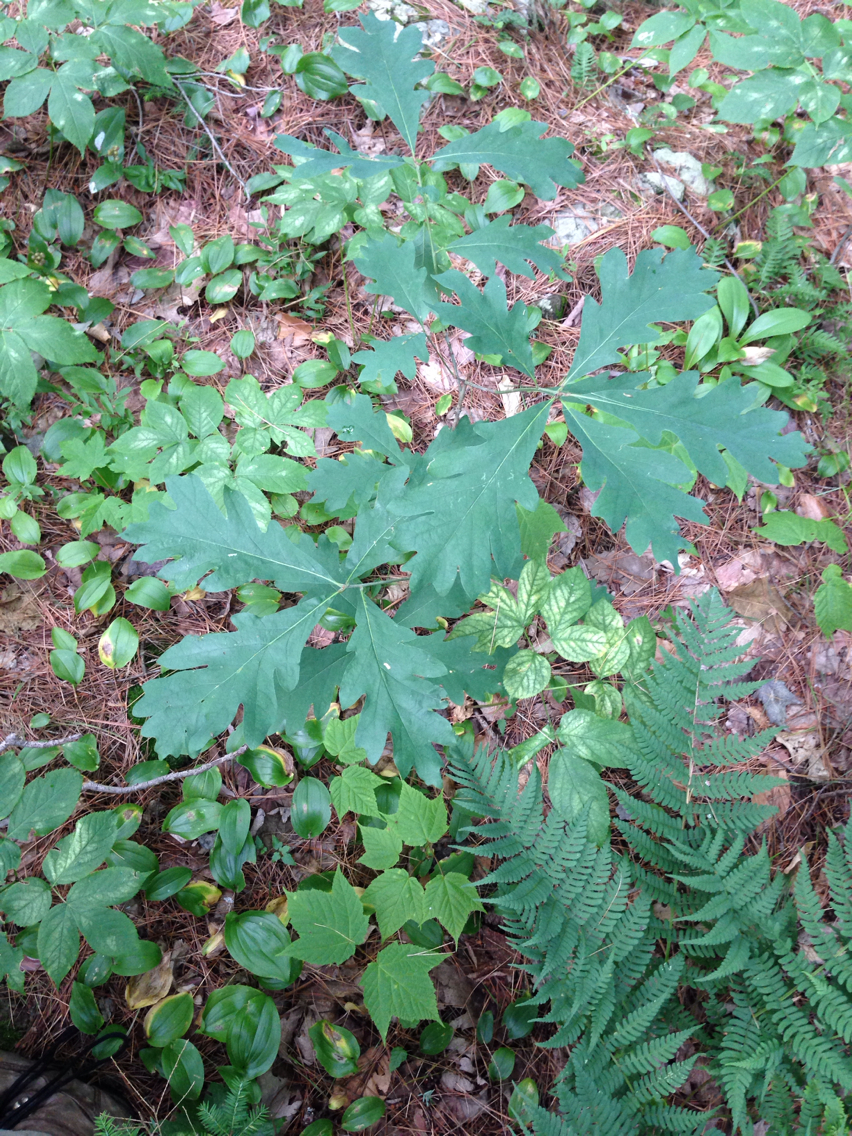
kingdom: Plantae
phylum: Tracheophyta
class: Magnoliopsida
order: Fagales
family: Fagaceae
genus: Quercus
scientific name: Quercus alba
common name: White oak
